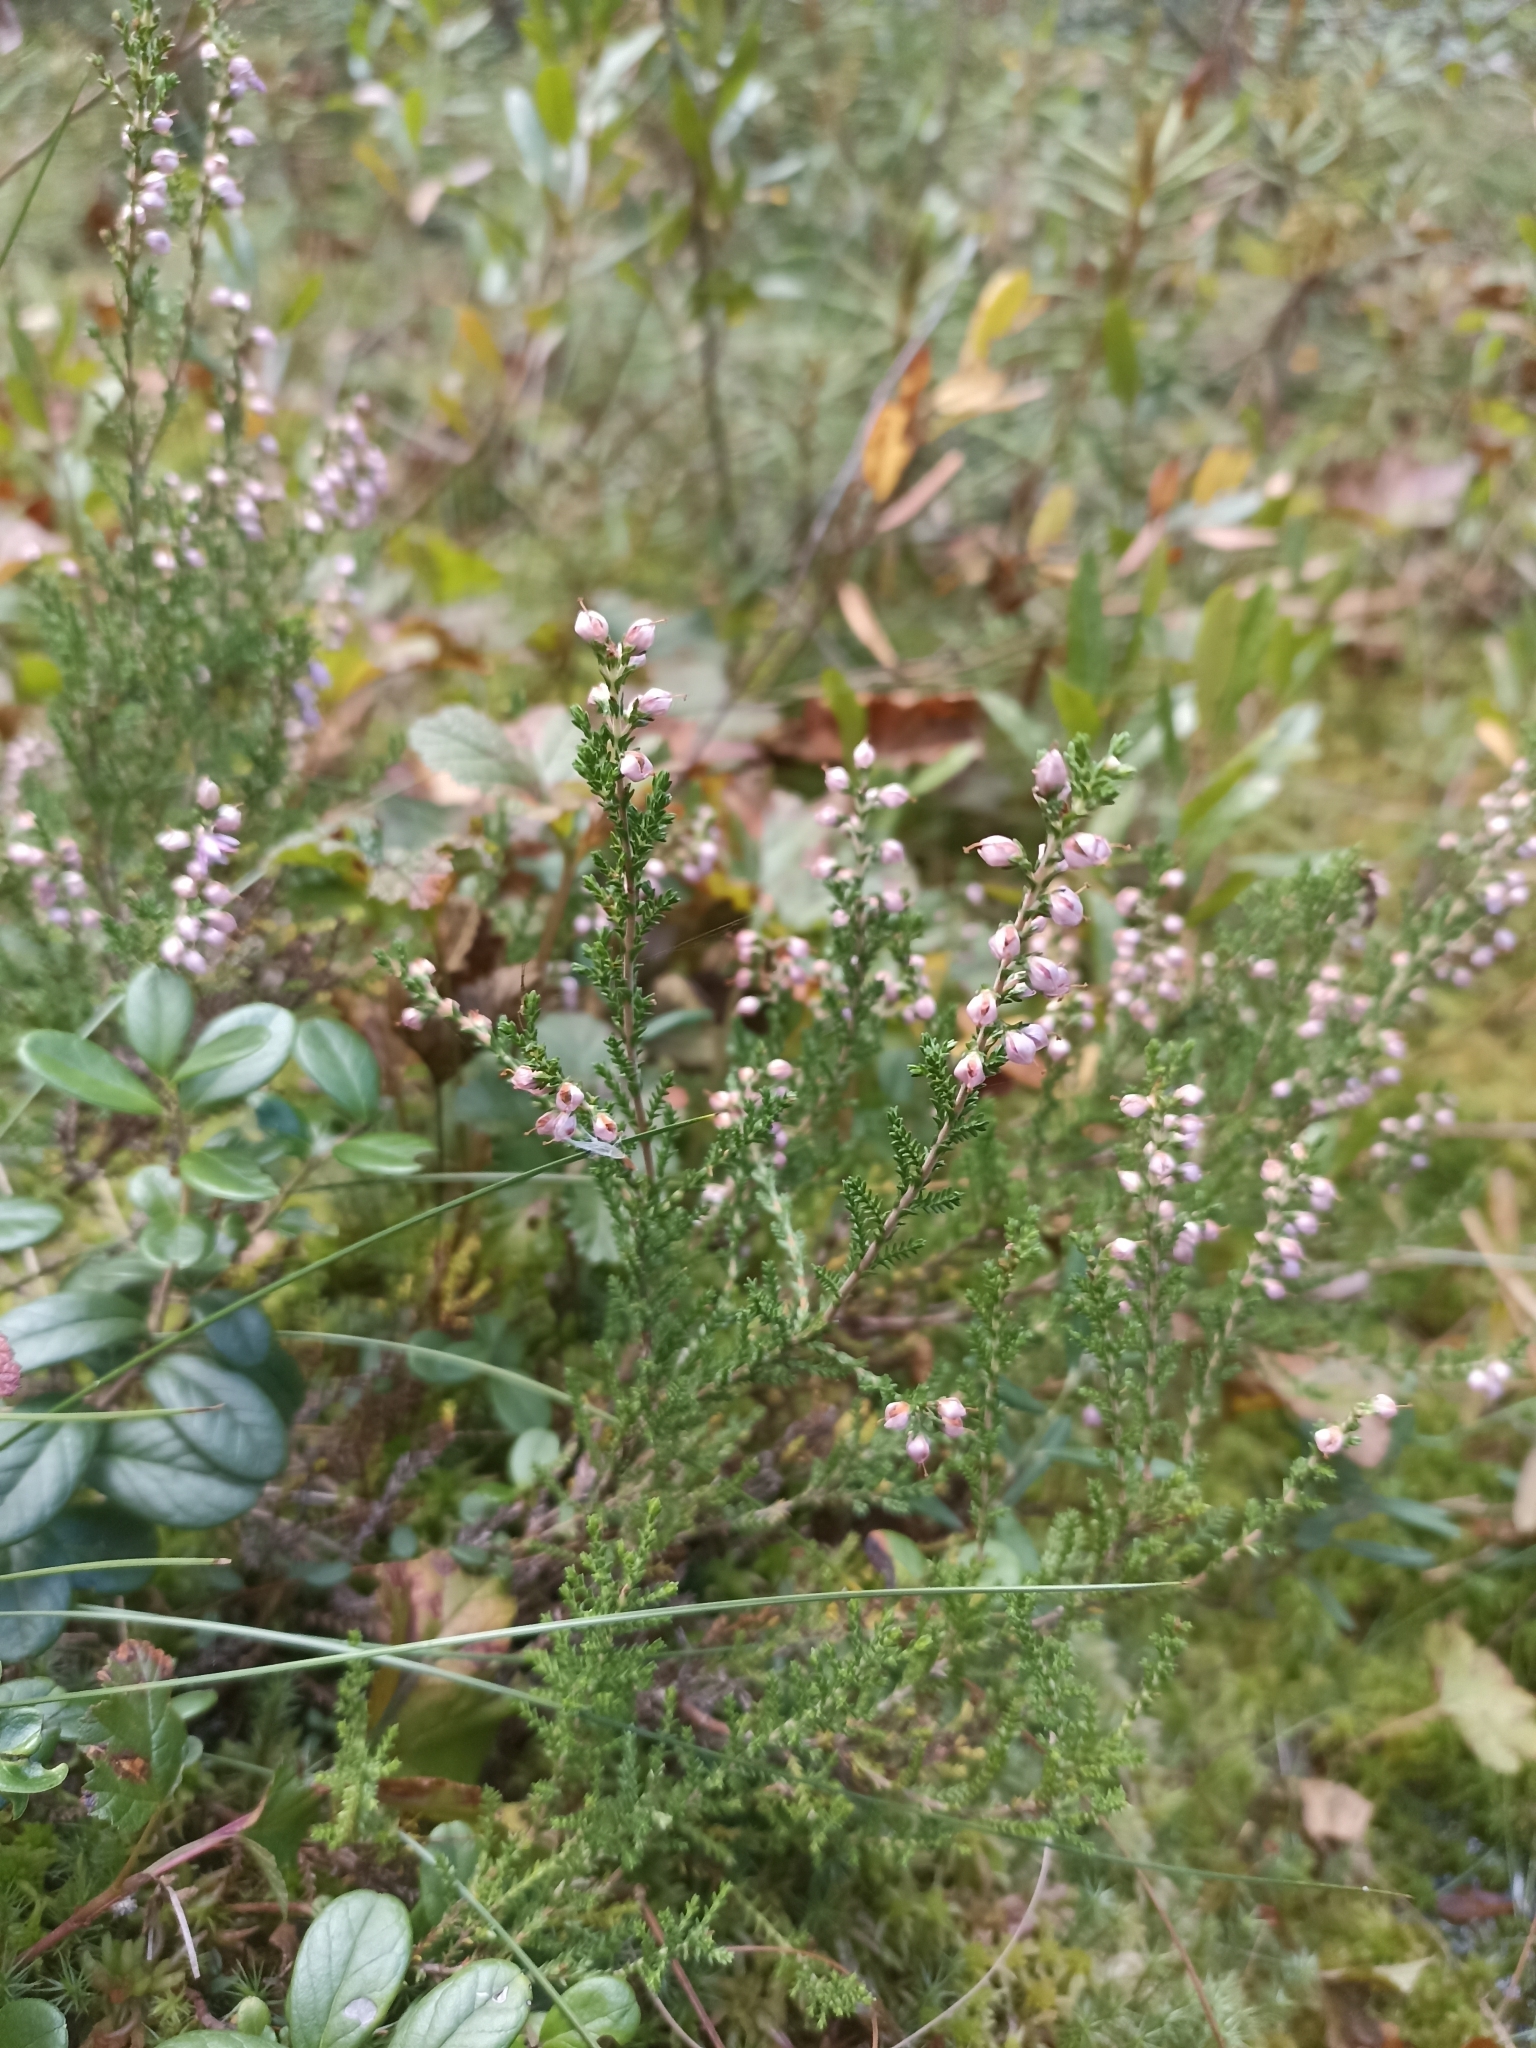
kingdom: Plantae
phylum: Tracheophyta
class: Magnoliopsida
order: Ericales
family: Ericaceae
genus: Calluna
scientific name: Calluna vulgaris
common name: Heather
